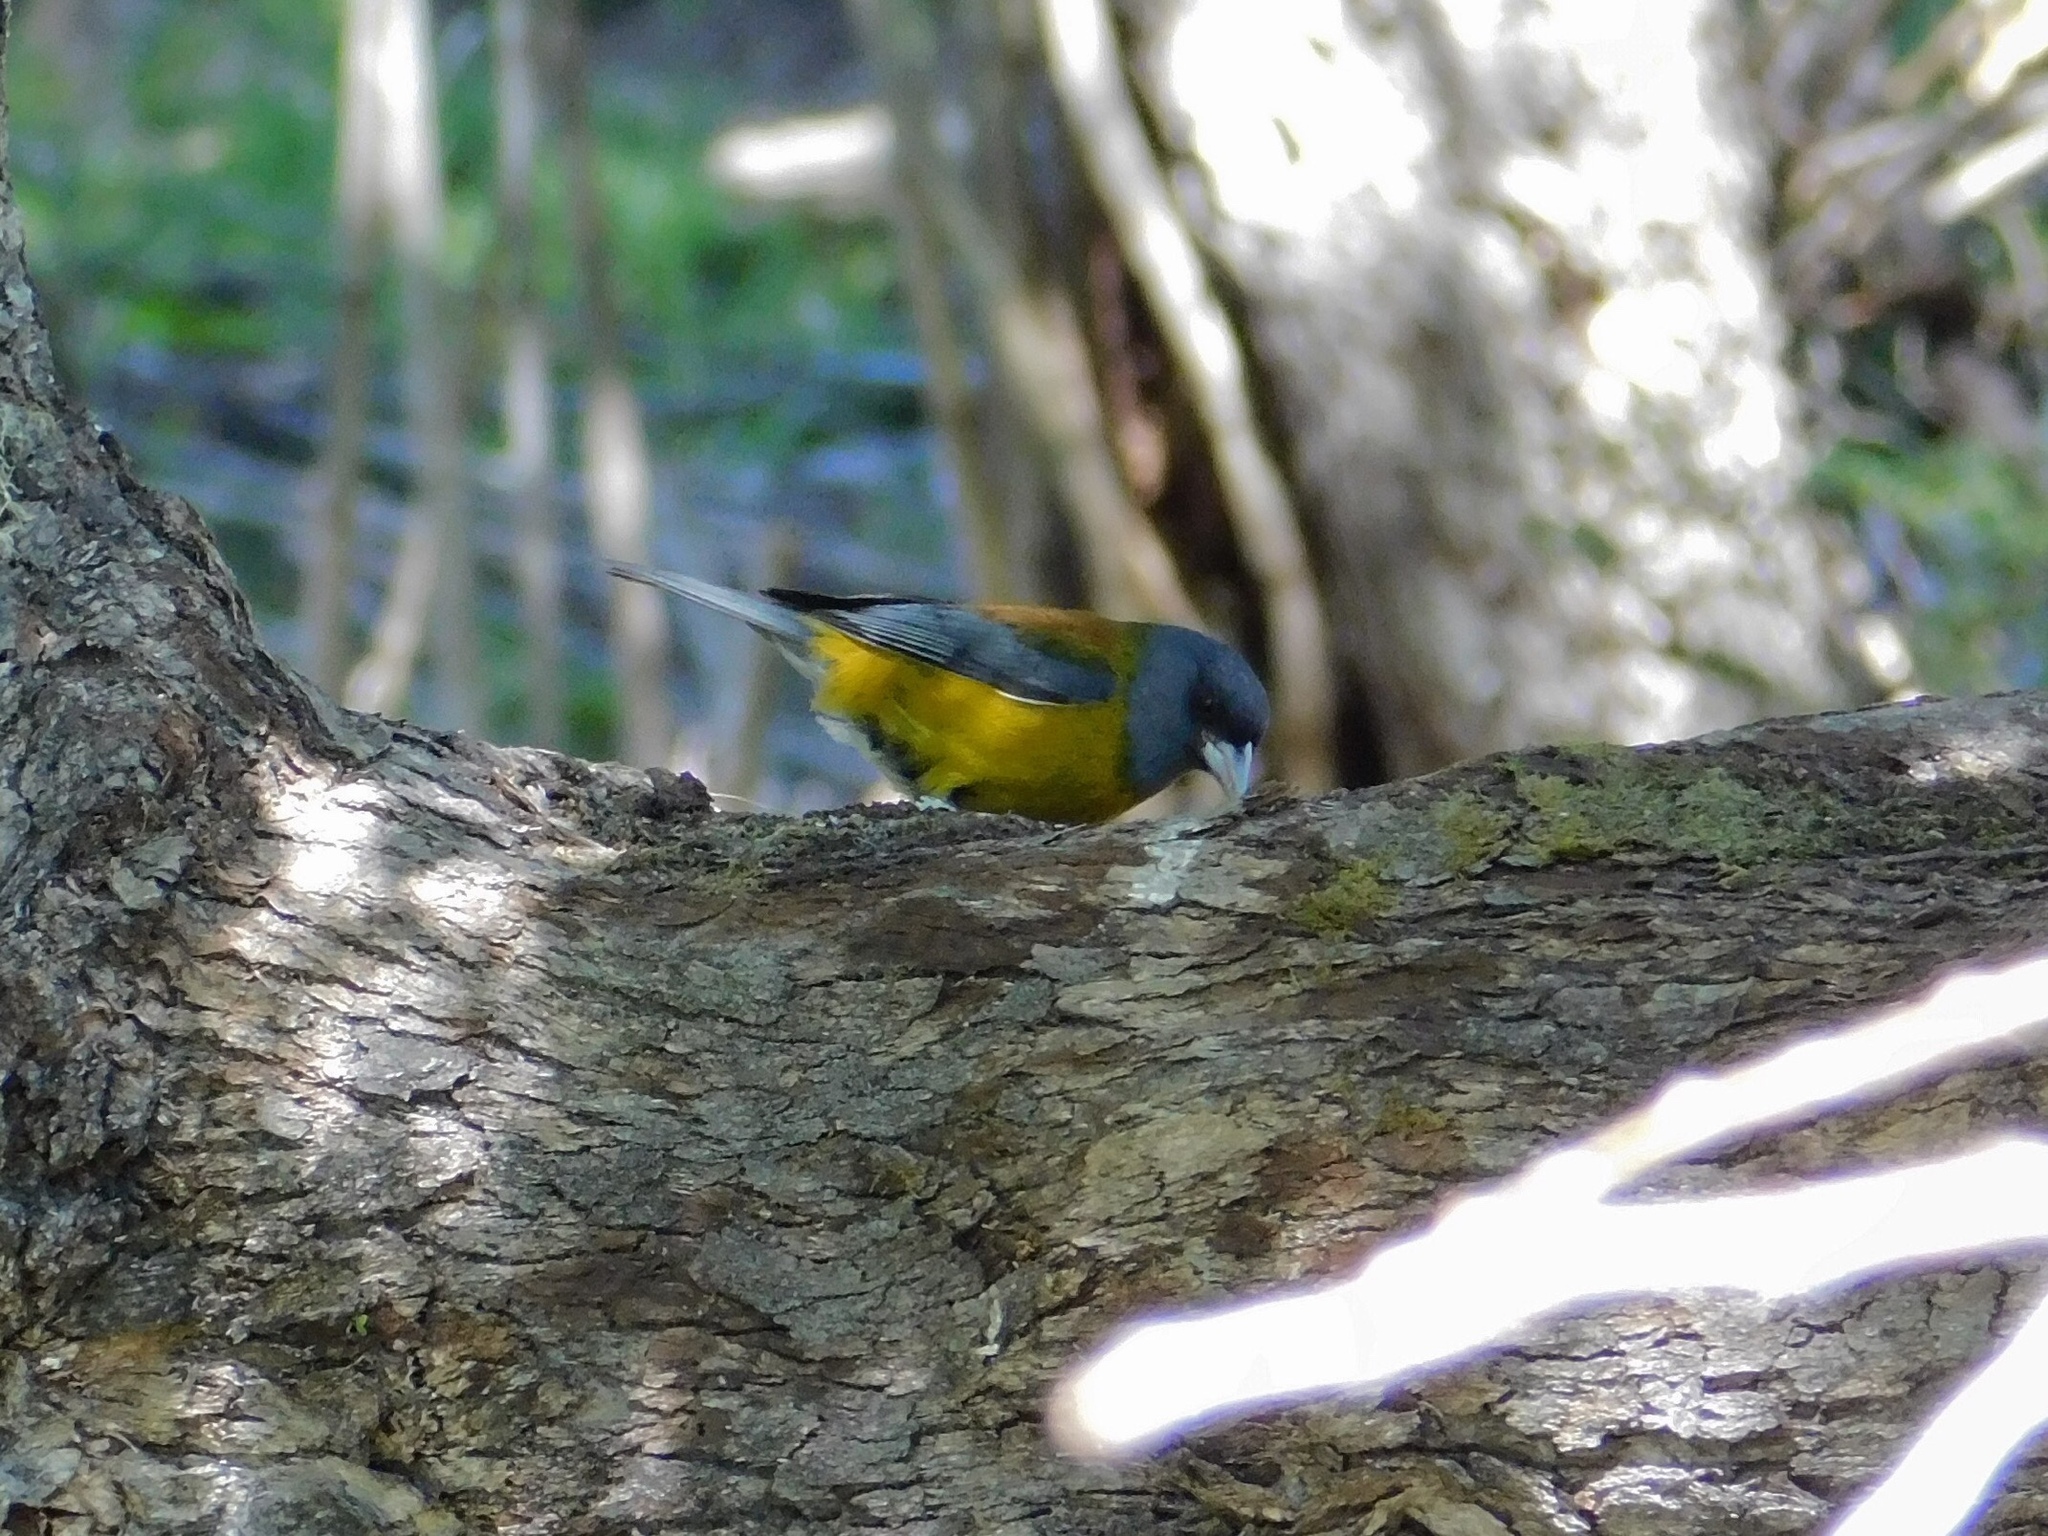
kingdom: Animalia
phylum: Chordata
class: Aves
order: Passeriformes
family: Thraupidae
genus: Phrygilus
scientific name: Phrygilus patagonicus
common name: Patagonian sierra finch
